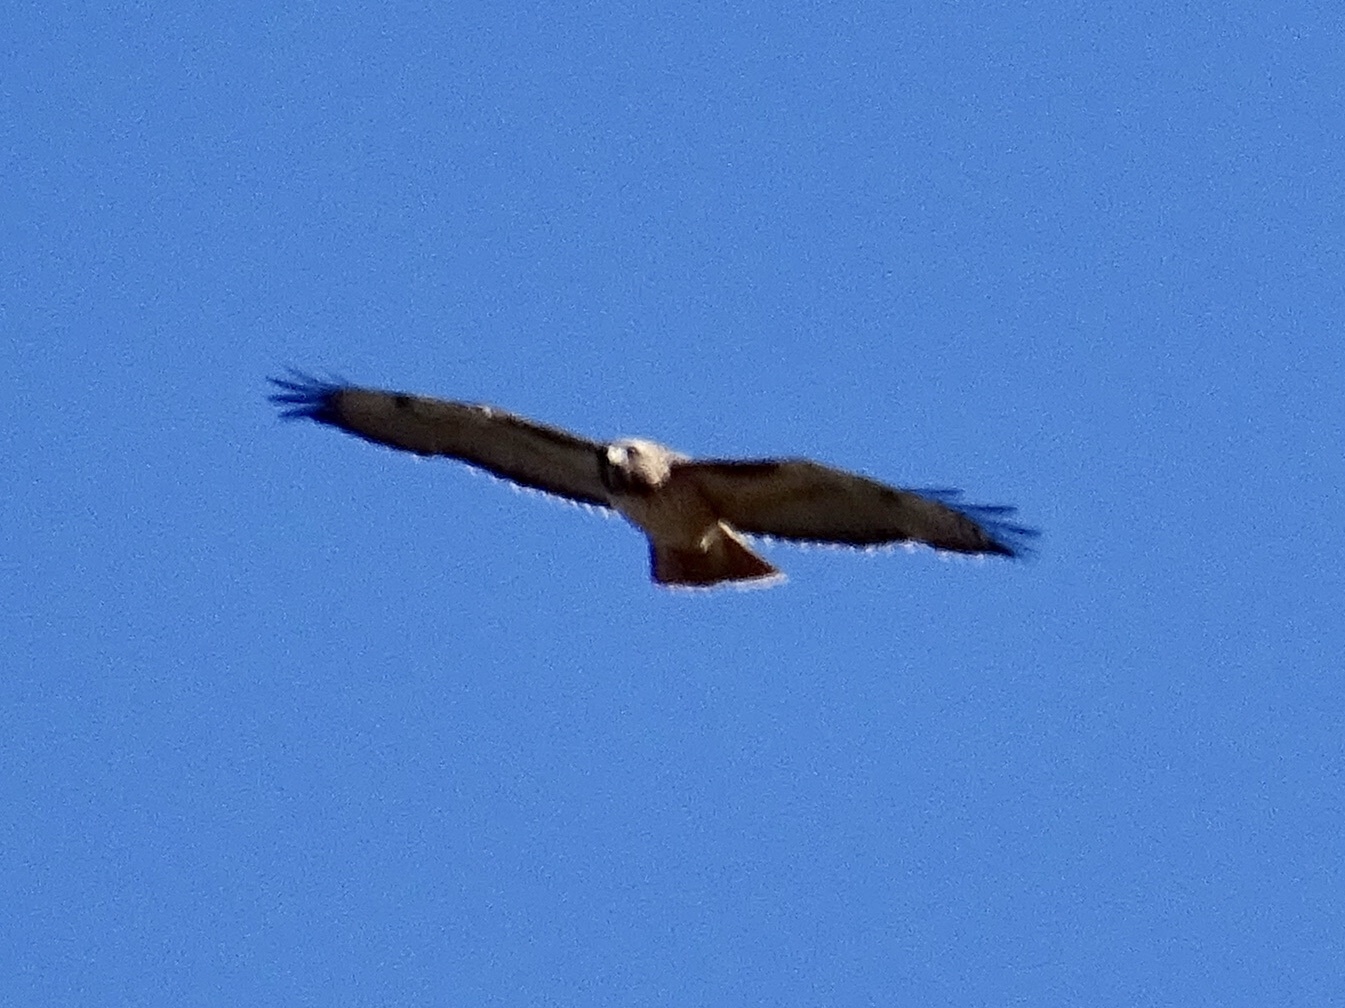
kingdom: Animalia
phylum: Chordata
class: Aves
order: Accipitriformes
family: Accipitridae
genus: Buteo
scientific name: Buteo jamaicensis
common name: Red-tailed hawk
